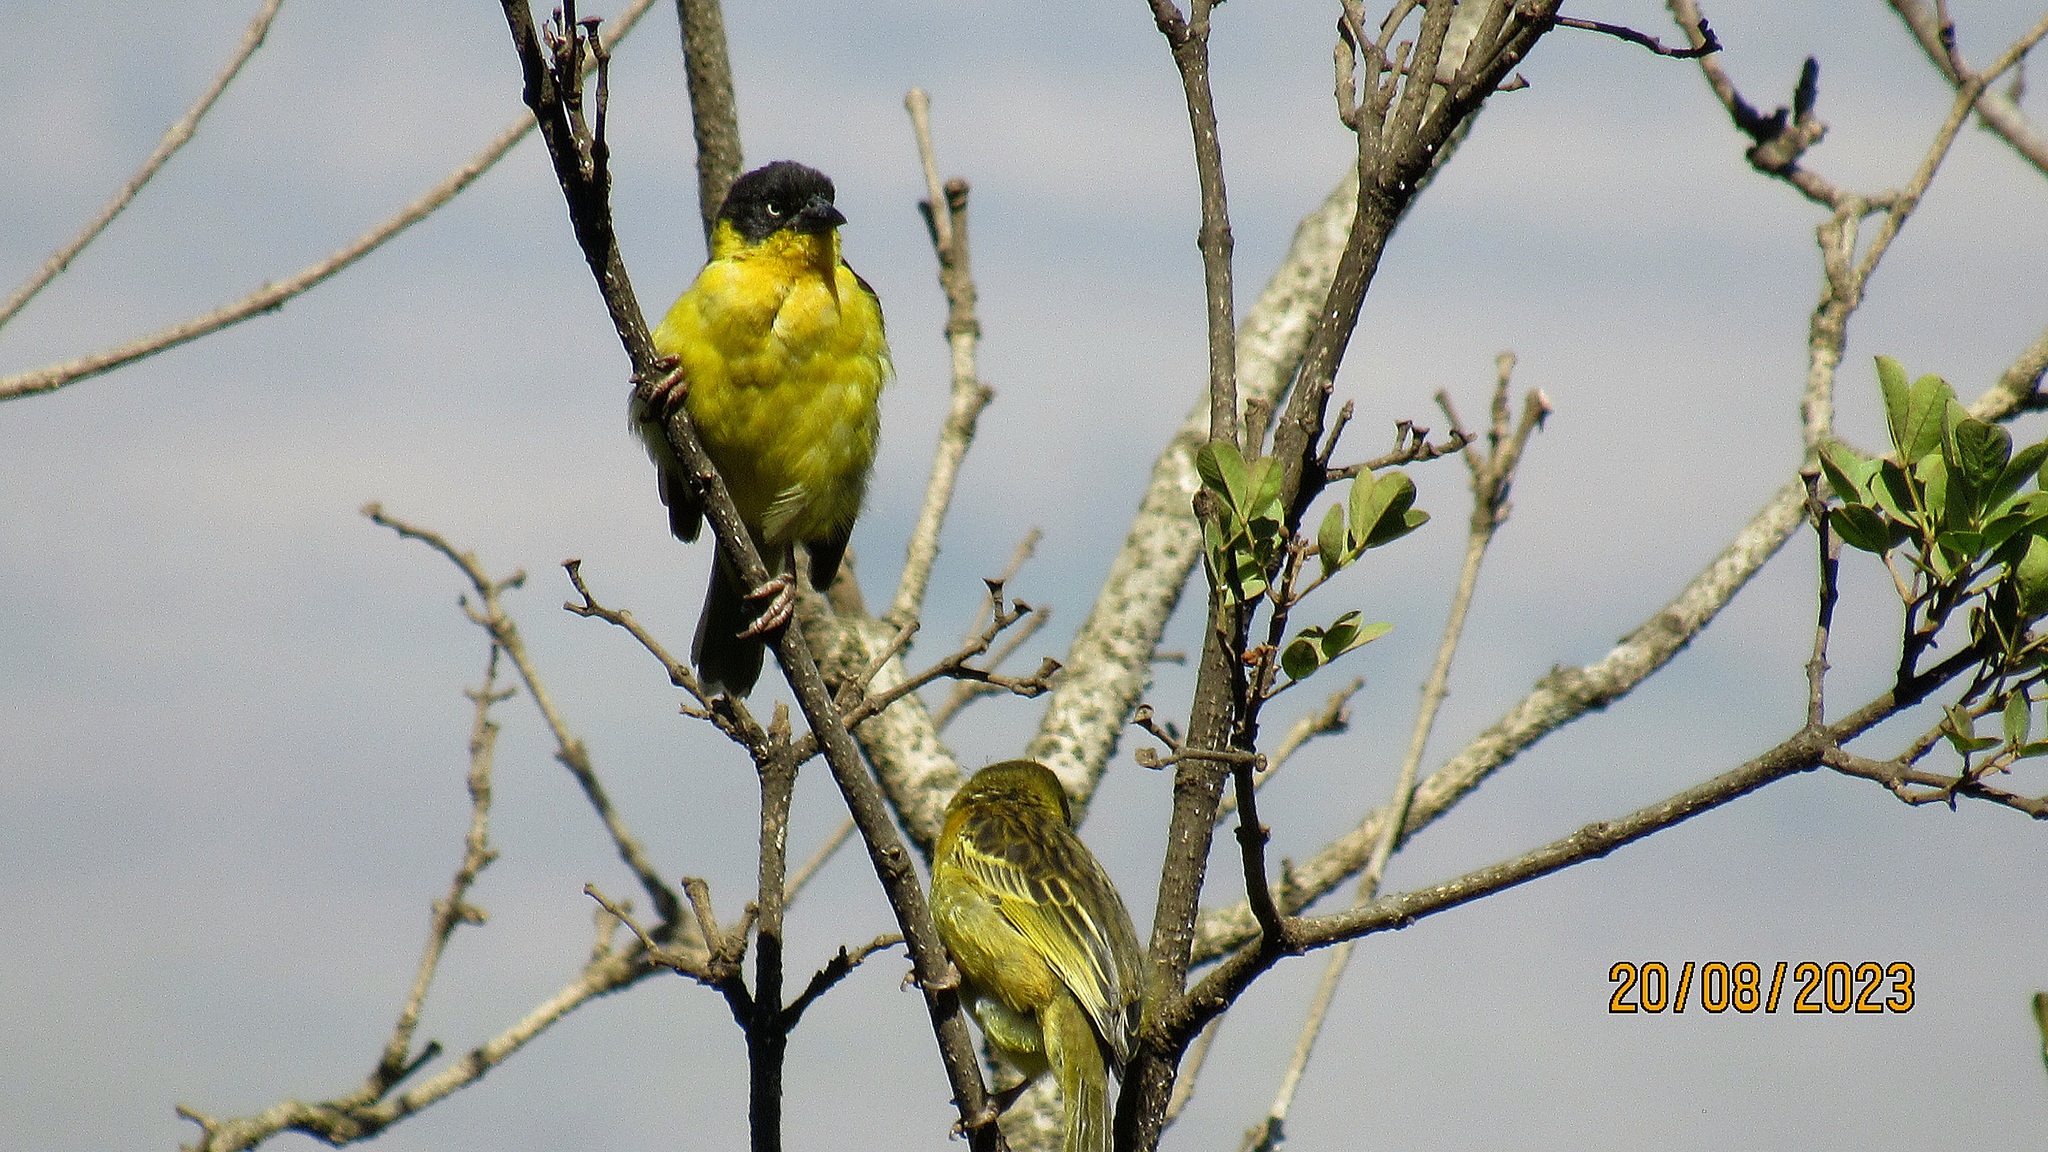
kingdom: Animalia
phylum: Chordata
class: Aves
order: Passeriformes
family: Ploceidae
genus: Ploceus
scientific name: Ploceus baglafecht
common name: Baglafecht weaver
